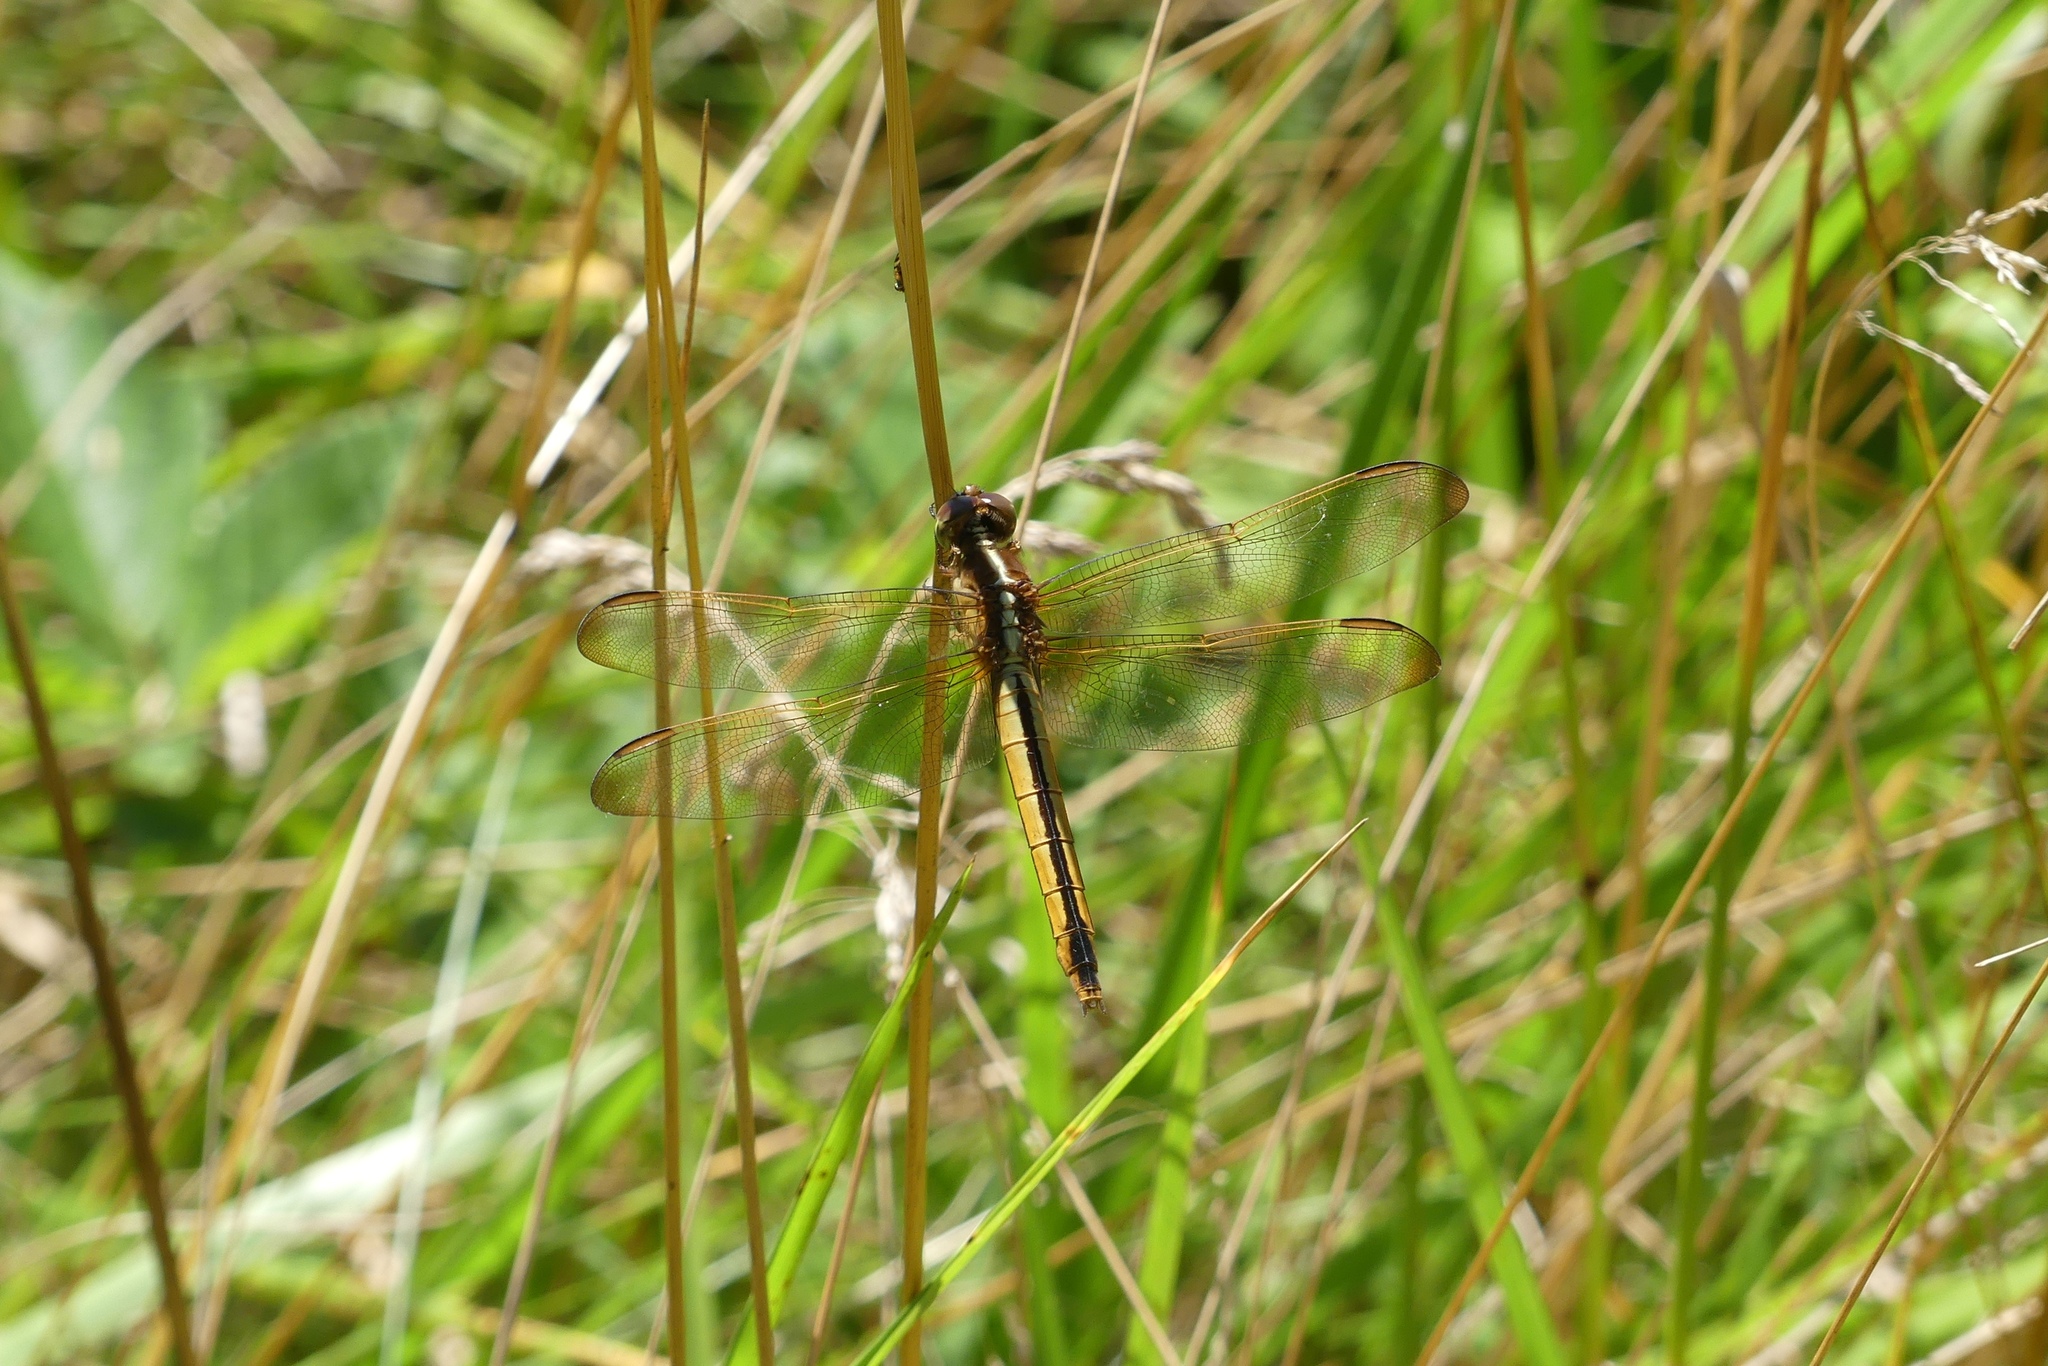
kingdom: Animalia
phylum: Arthropoda
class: Insecta
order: Odonata
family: Libellulidae
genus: Libellula
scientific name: Libellula needhami
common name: Needham's skimmer
